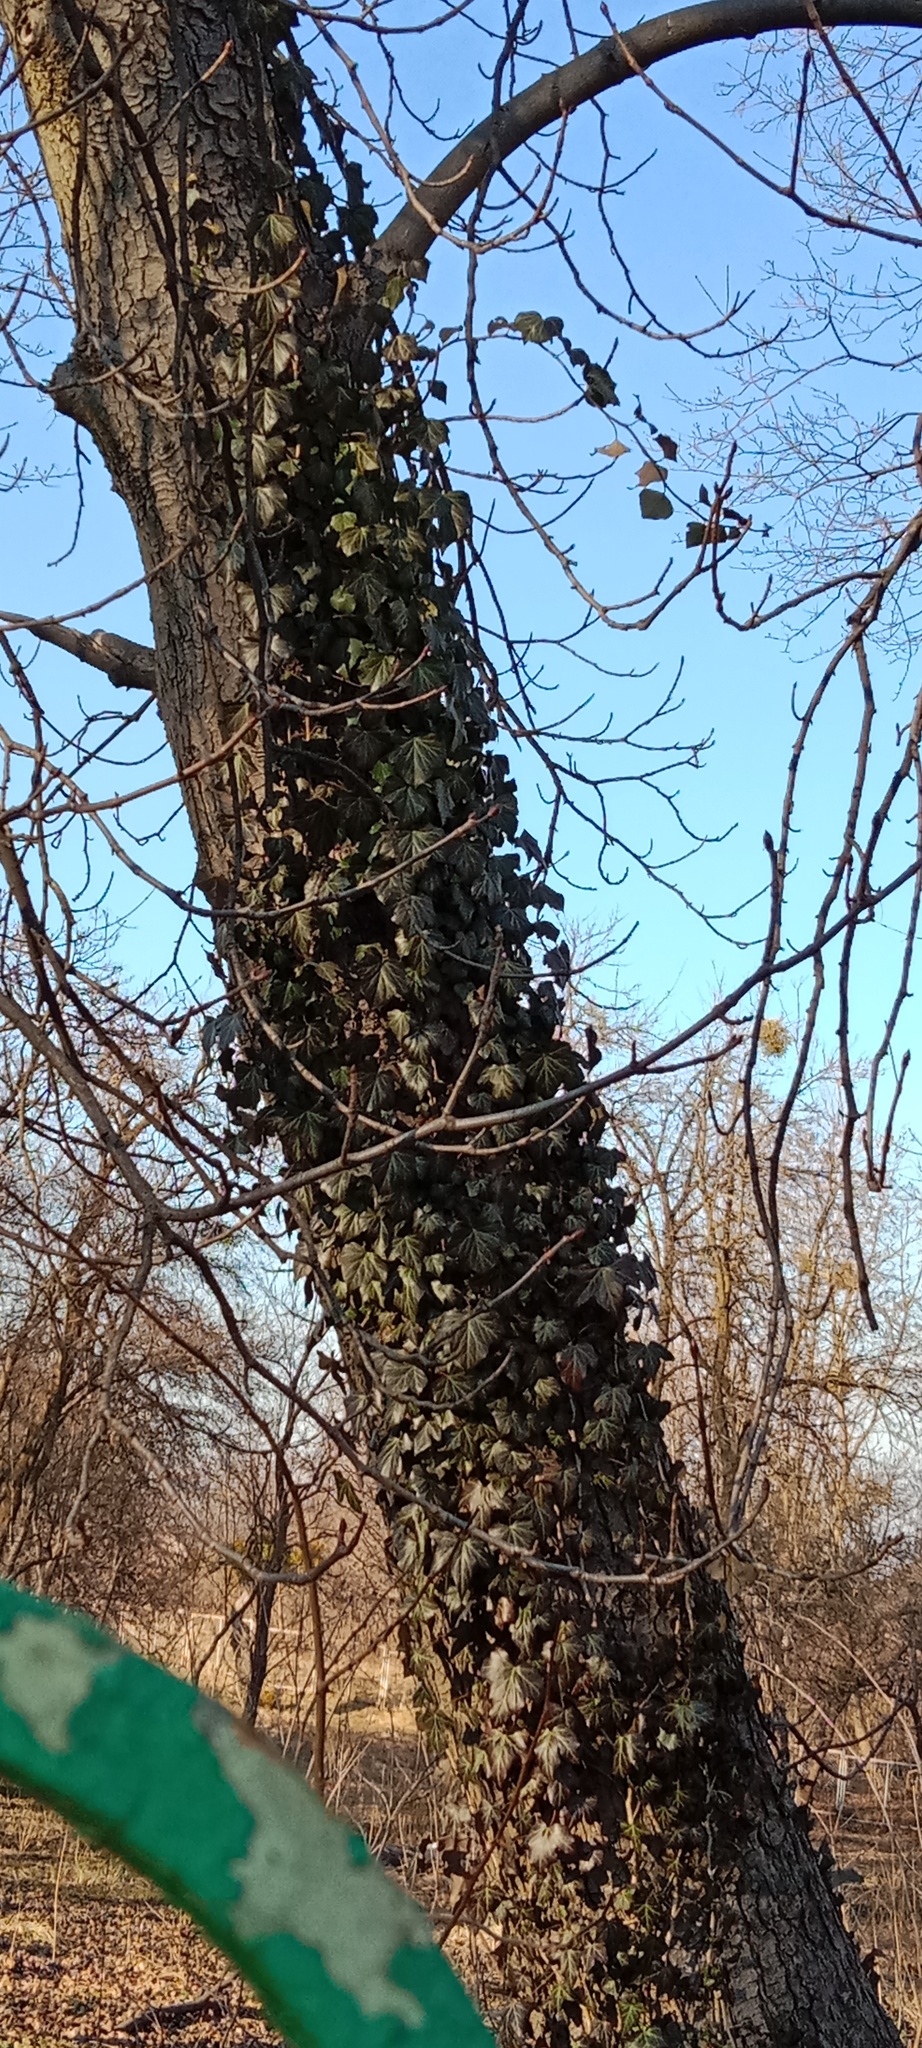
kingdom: Plantae
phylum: Tracheophyta
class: Magnoliopsida
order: Apiales
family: Araliaceae
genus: Hedera
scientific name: Hedera helix
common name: Ivy
